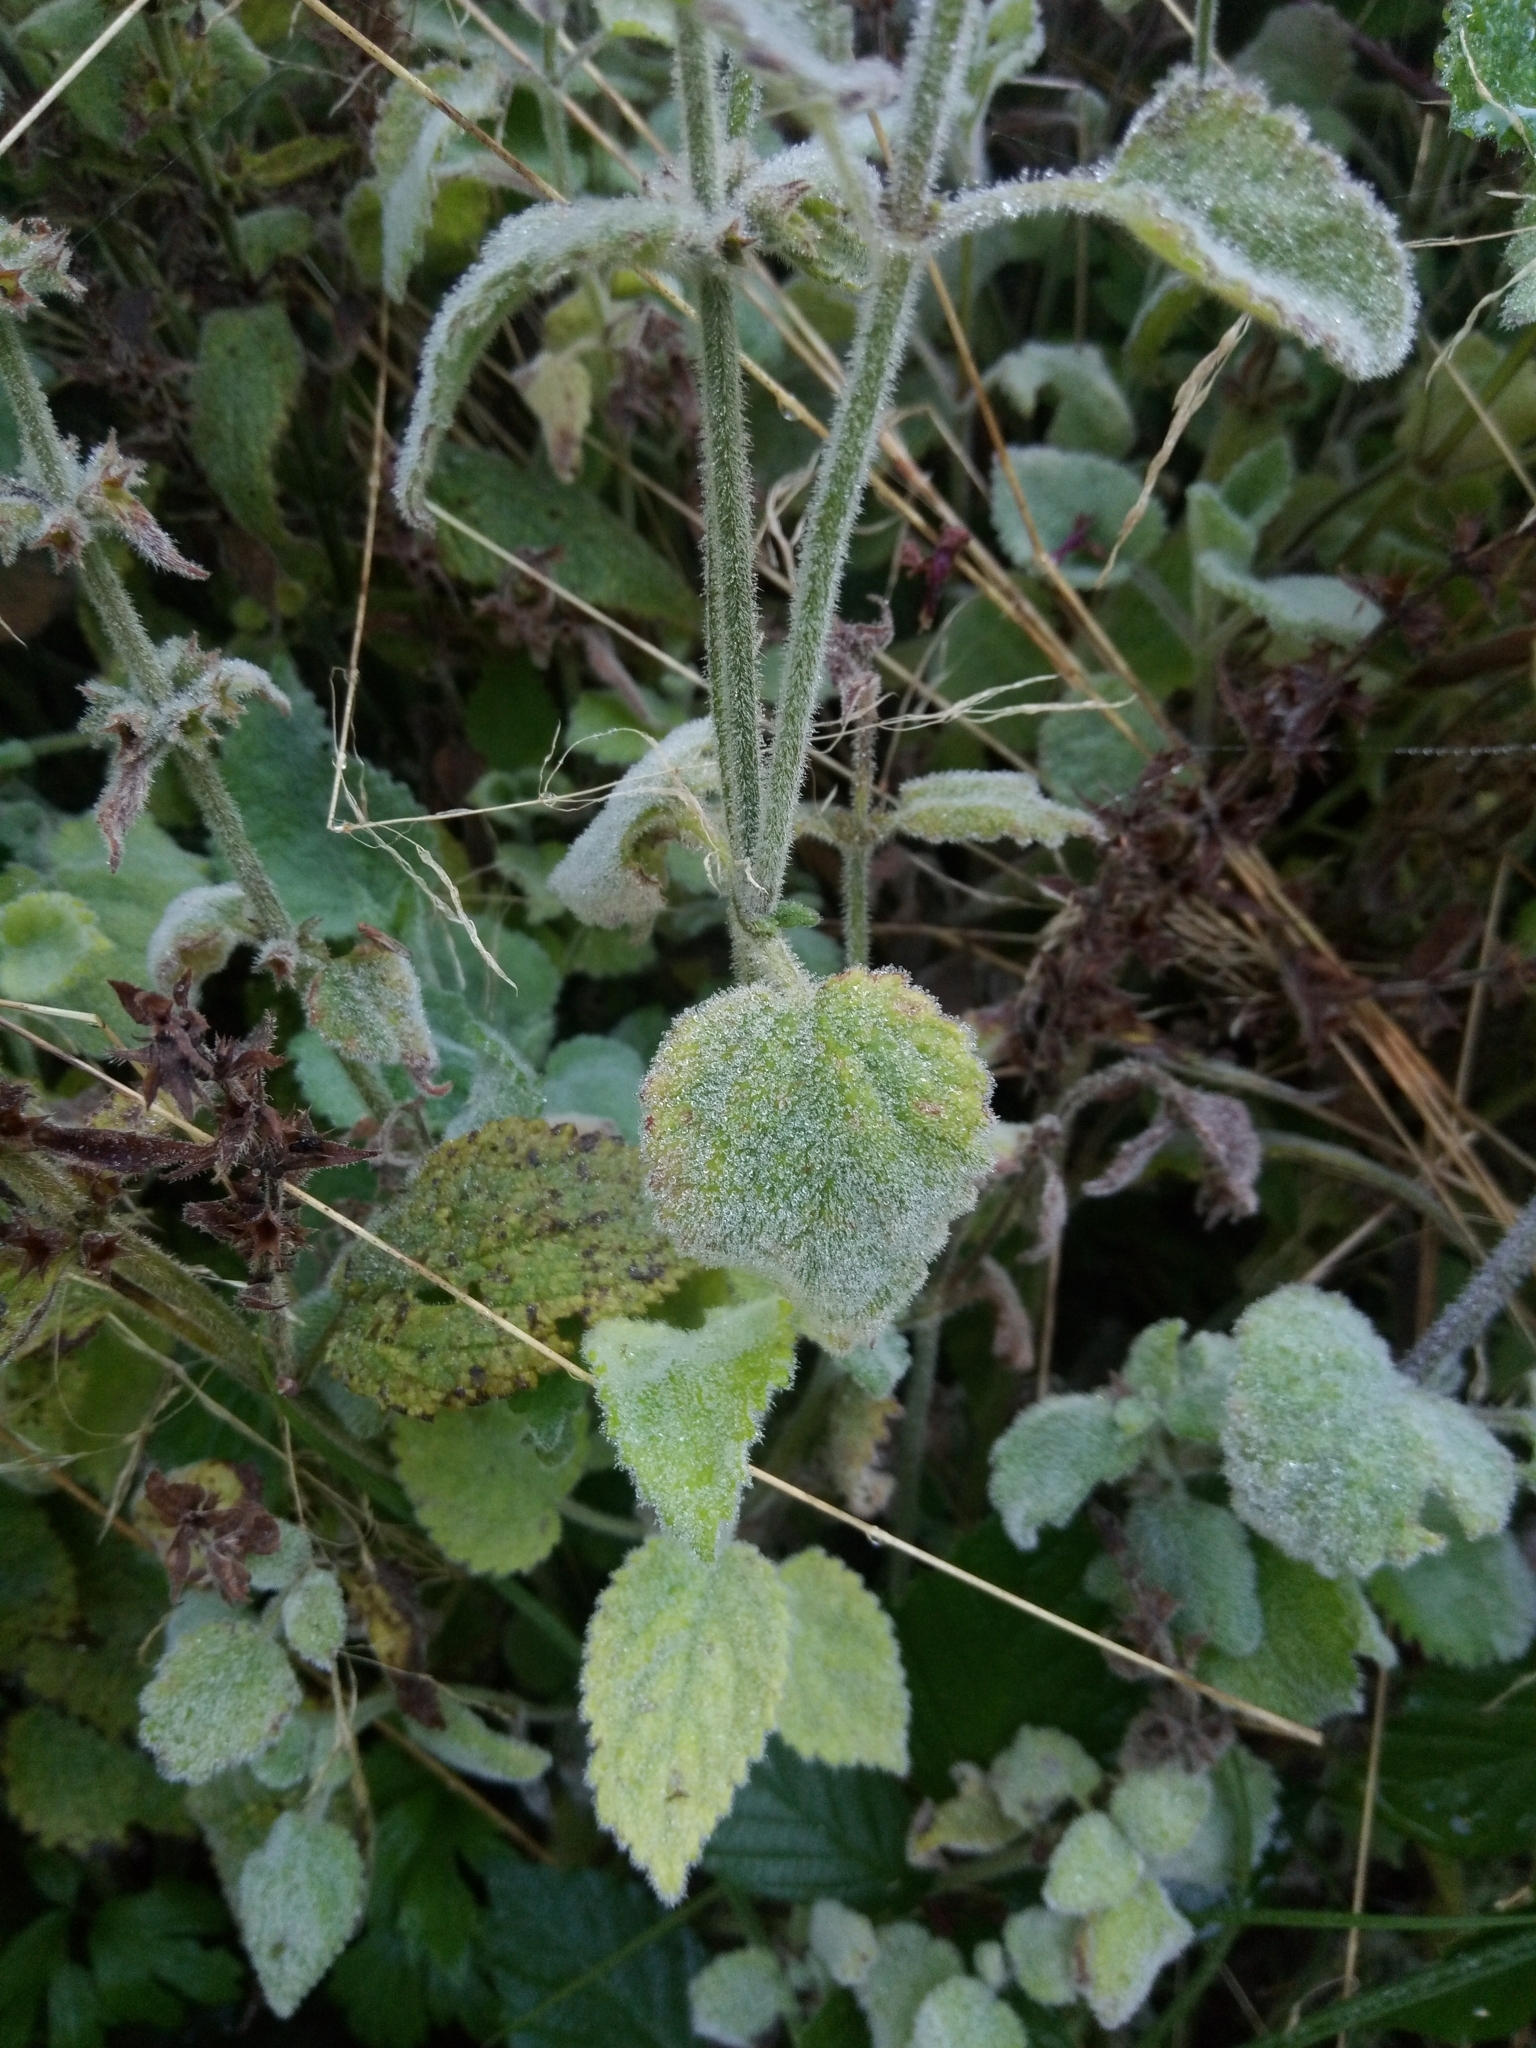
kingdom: Plantae
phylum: Tracheophyta
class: Magnoliopsida
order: Lamiales
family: Lamiaceae
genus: Stachys
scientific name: Stachys sylvatica
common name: Hedge woundwort
